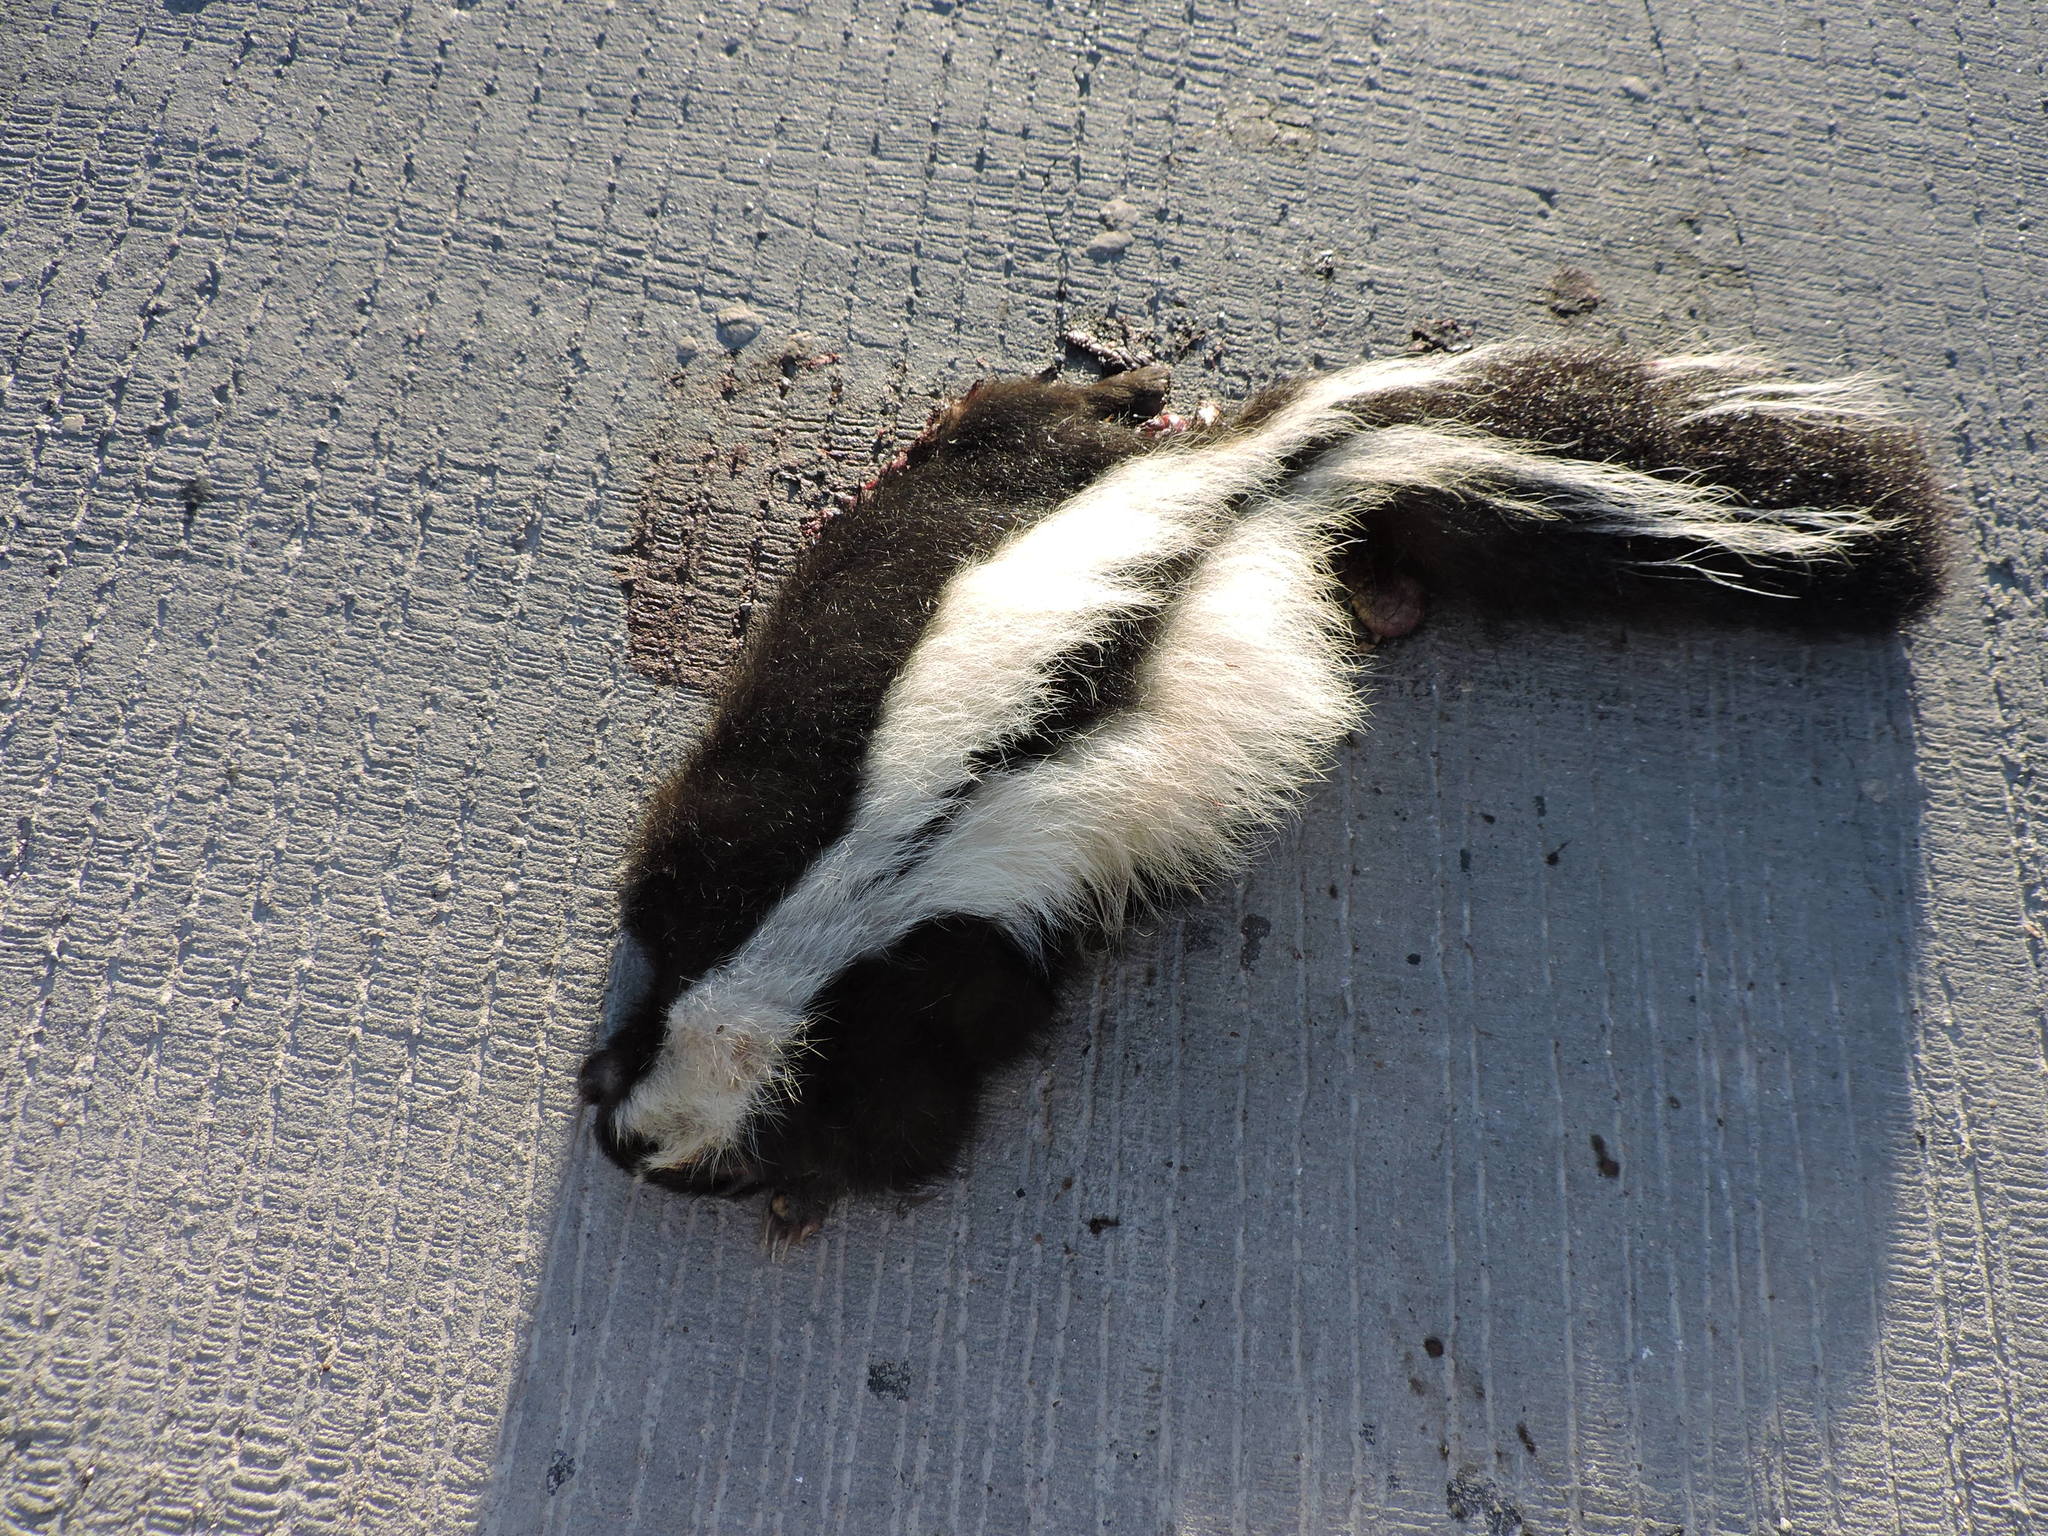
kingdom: Animalia
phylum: Chordata
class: Mammalia
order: Carnivora
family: Mephitidae
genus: Mephitis
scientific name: Mephitis mephitis
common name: Striped skunk
